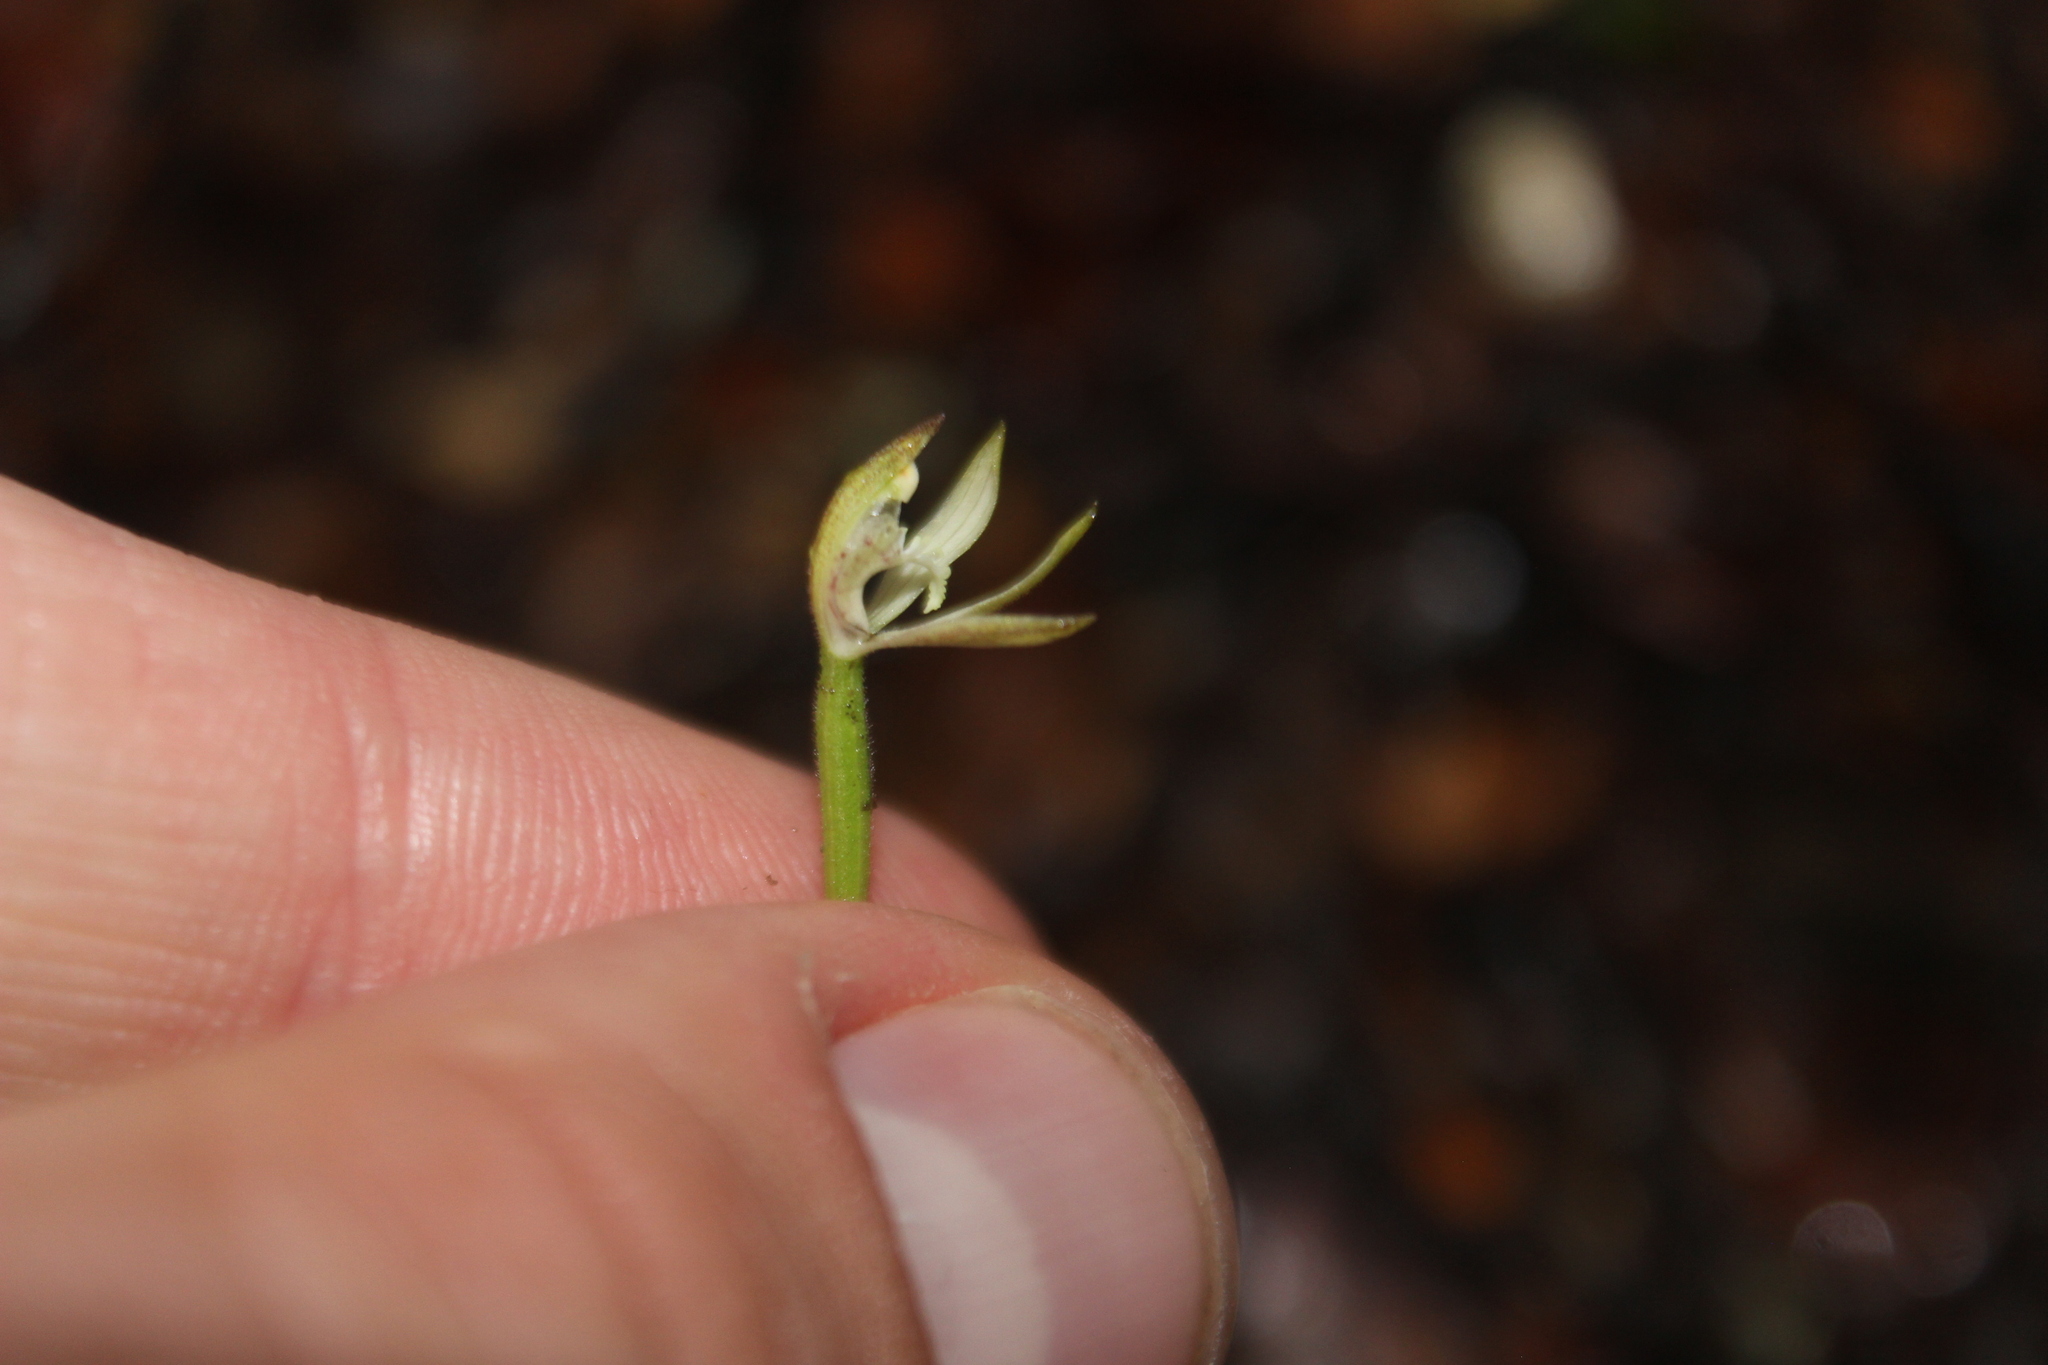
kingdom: Plantae
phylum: Tracheophyta
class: Liliopsida
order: Asparagales
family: Orchidaceae
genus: Caladenia
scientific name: Caladenia chlorostyla
